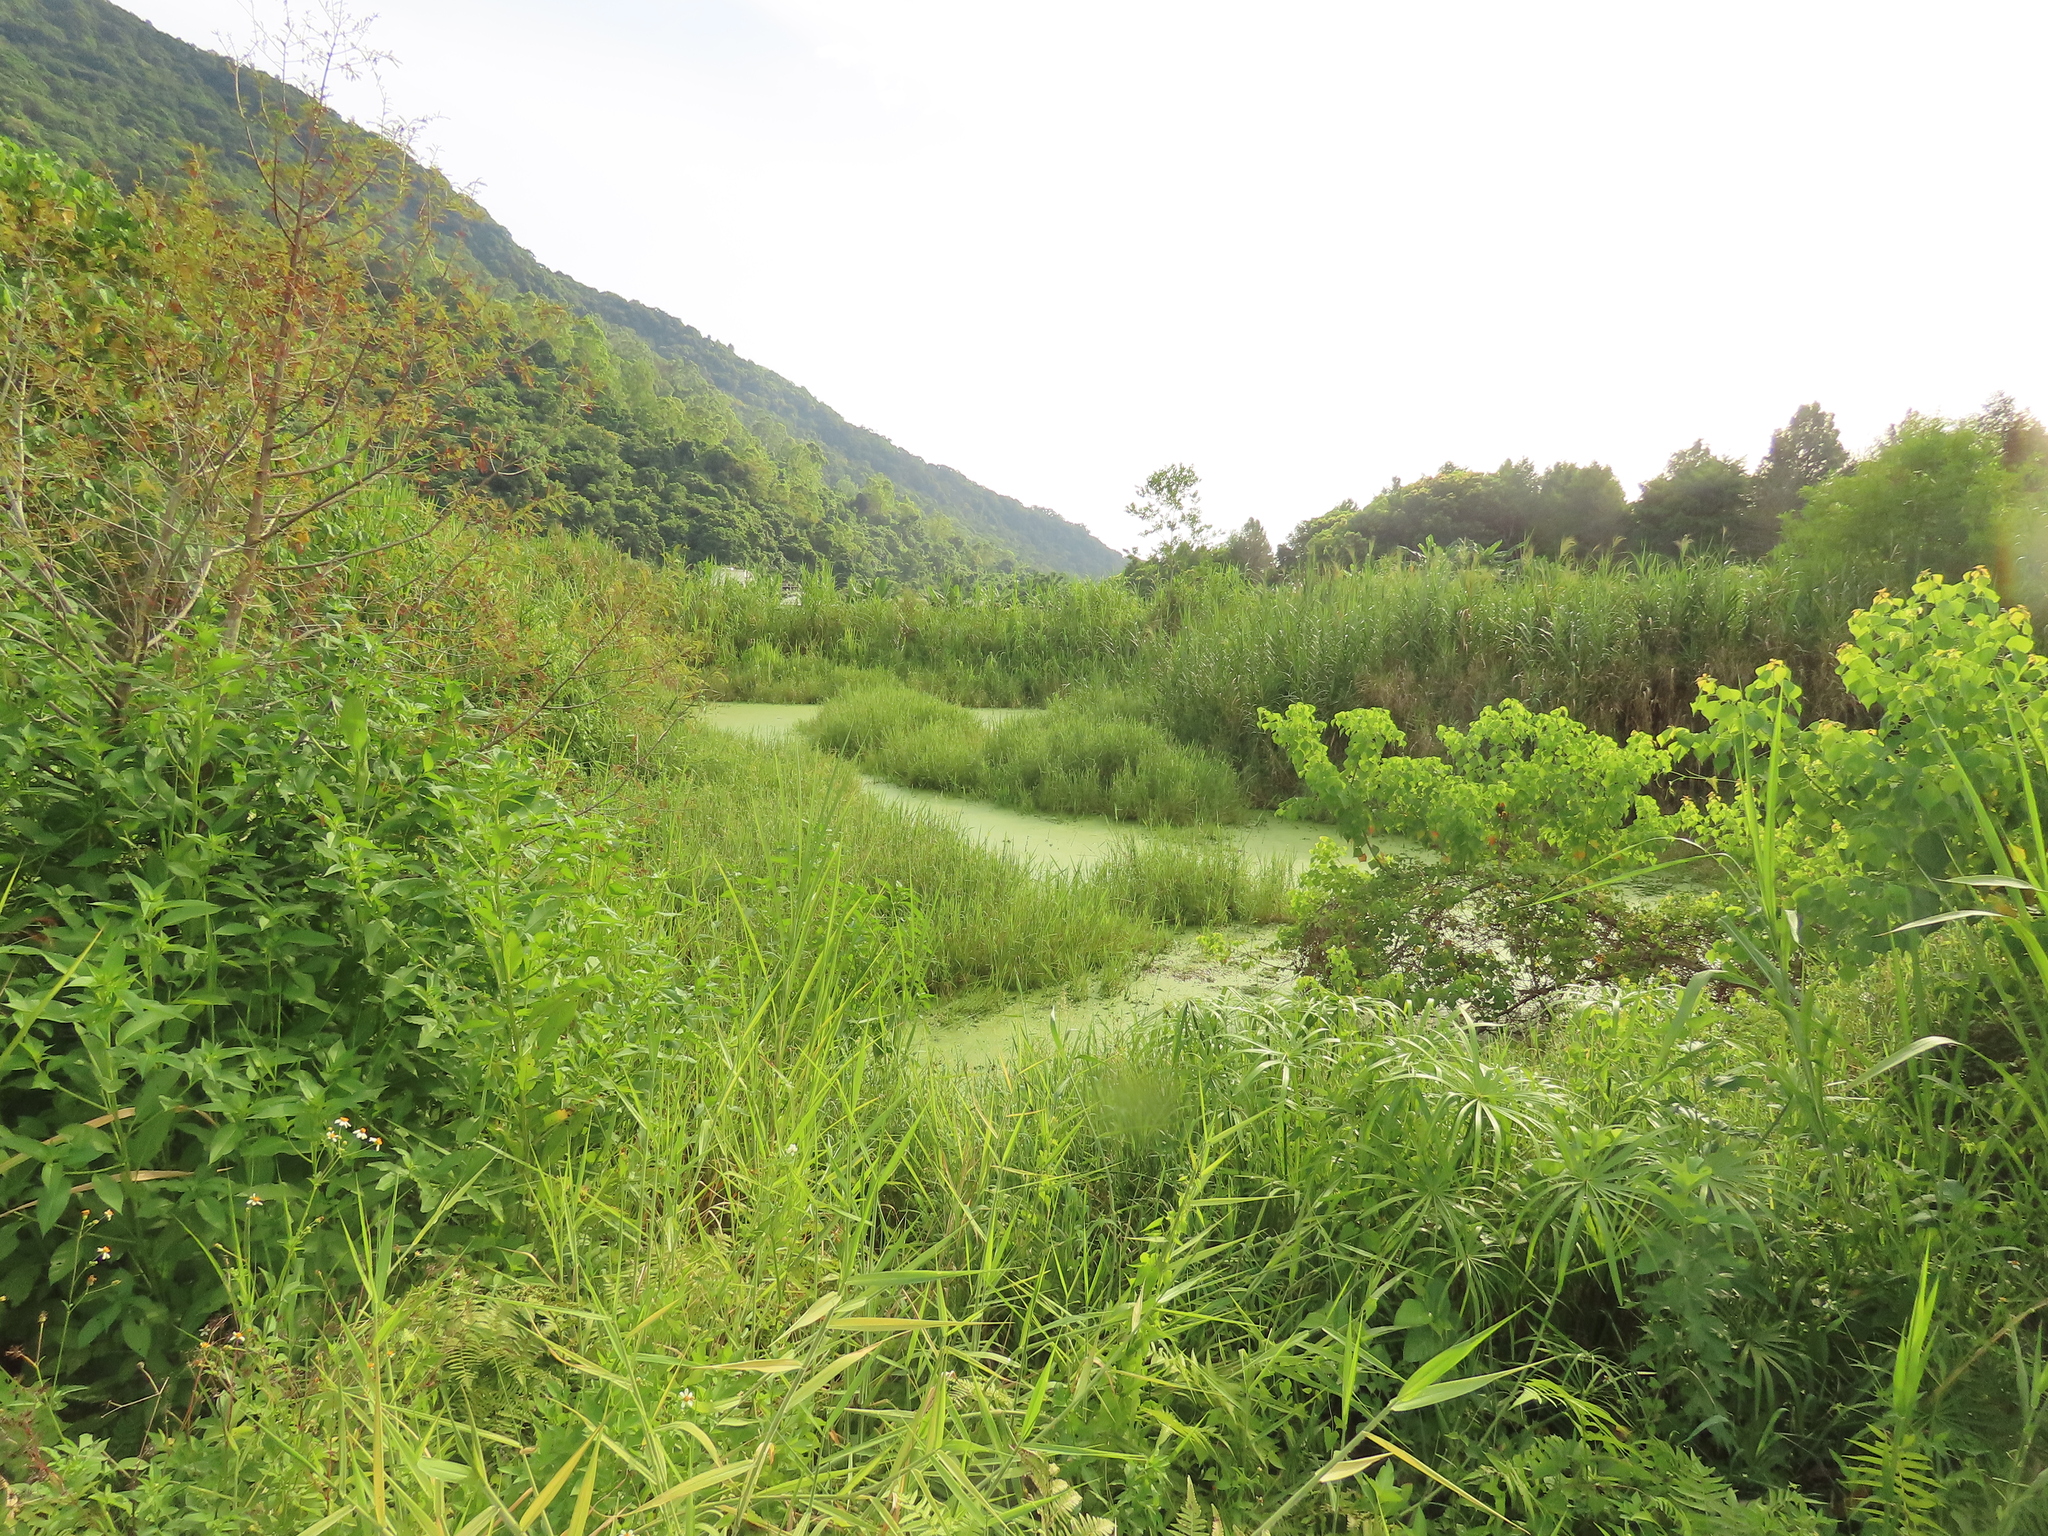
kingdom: Plantae
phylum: Tracheophyta
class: Liliopsida
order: Alismatales
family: Araceae
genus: Wolffia
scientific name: Wolffia globosa
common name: Asian watermeal
